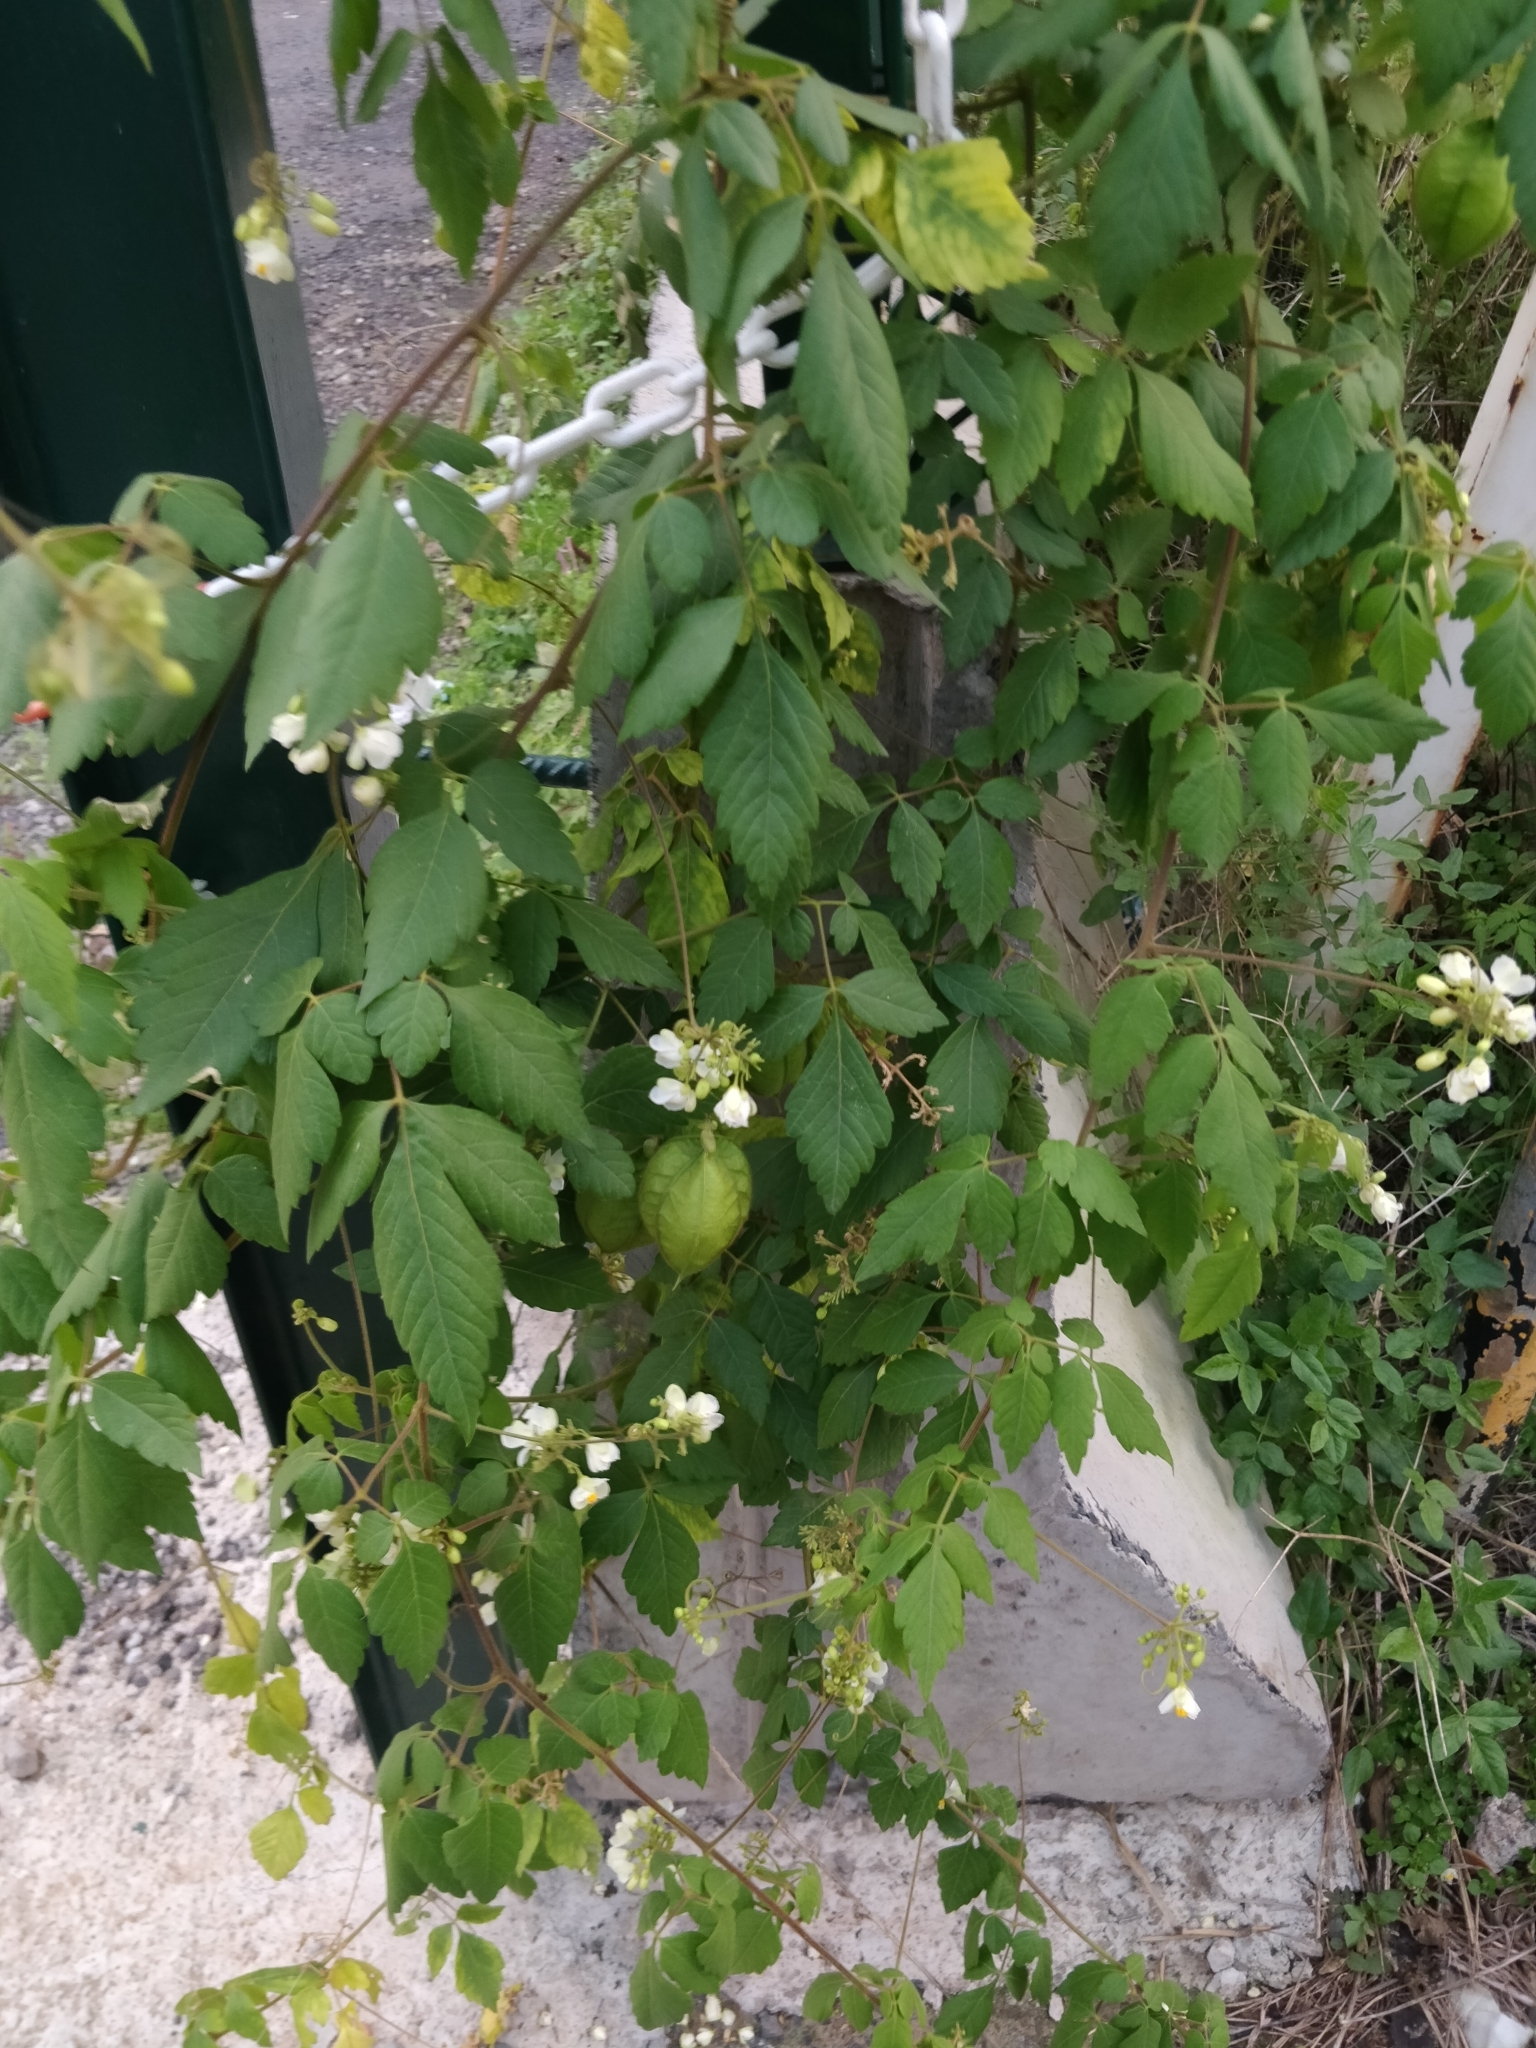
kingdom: Plantae
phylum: Tracheophyta
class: Magnoliopsida
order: Sapindales
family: Sapindaceae
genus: Cardiospermum
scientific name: Cardiospermum grandiflorum
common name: Balloon vine
